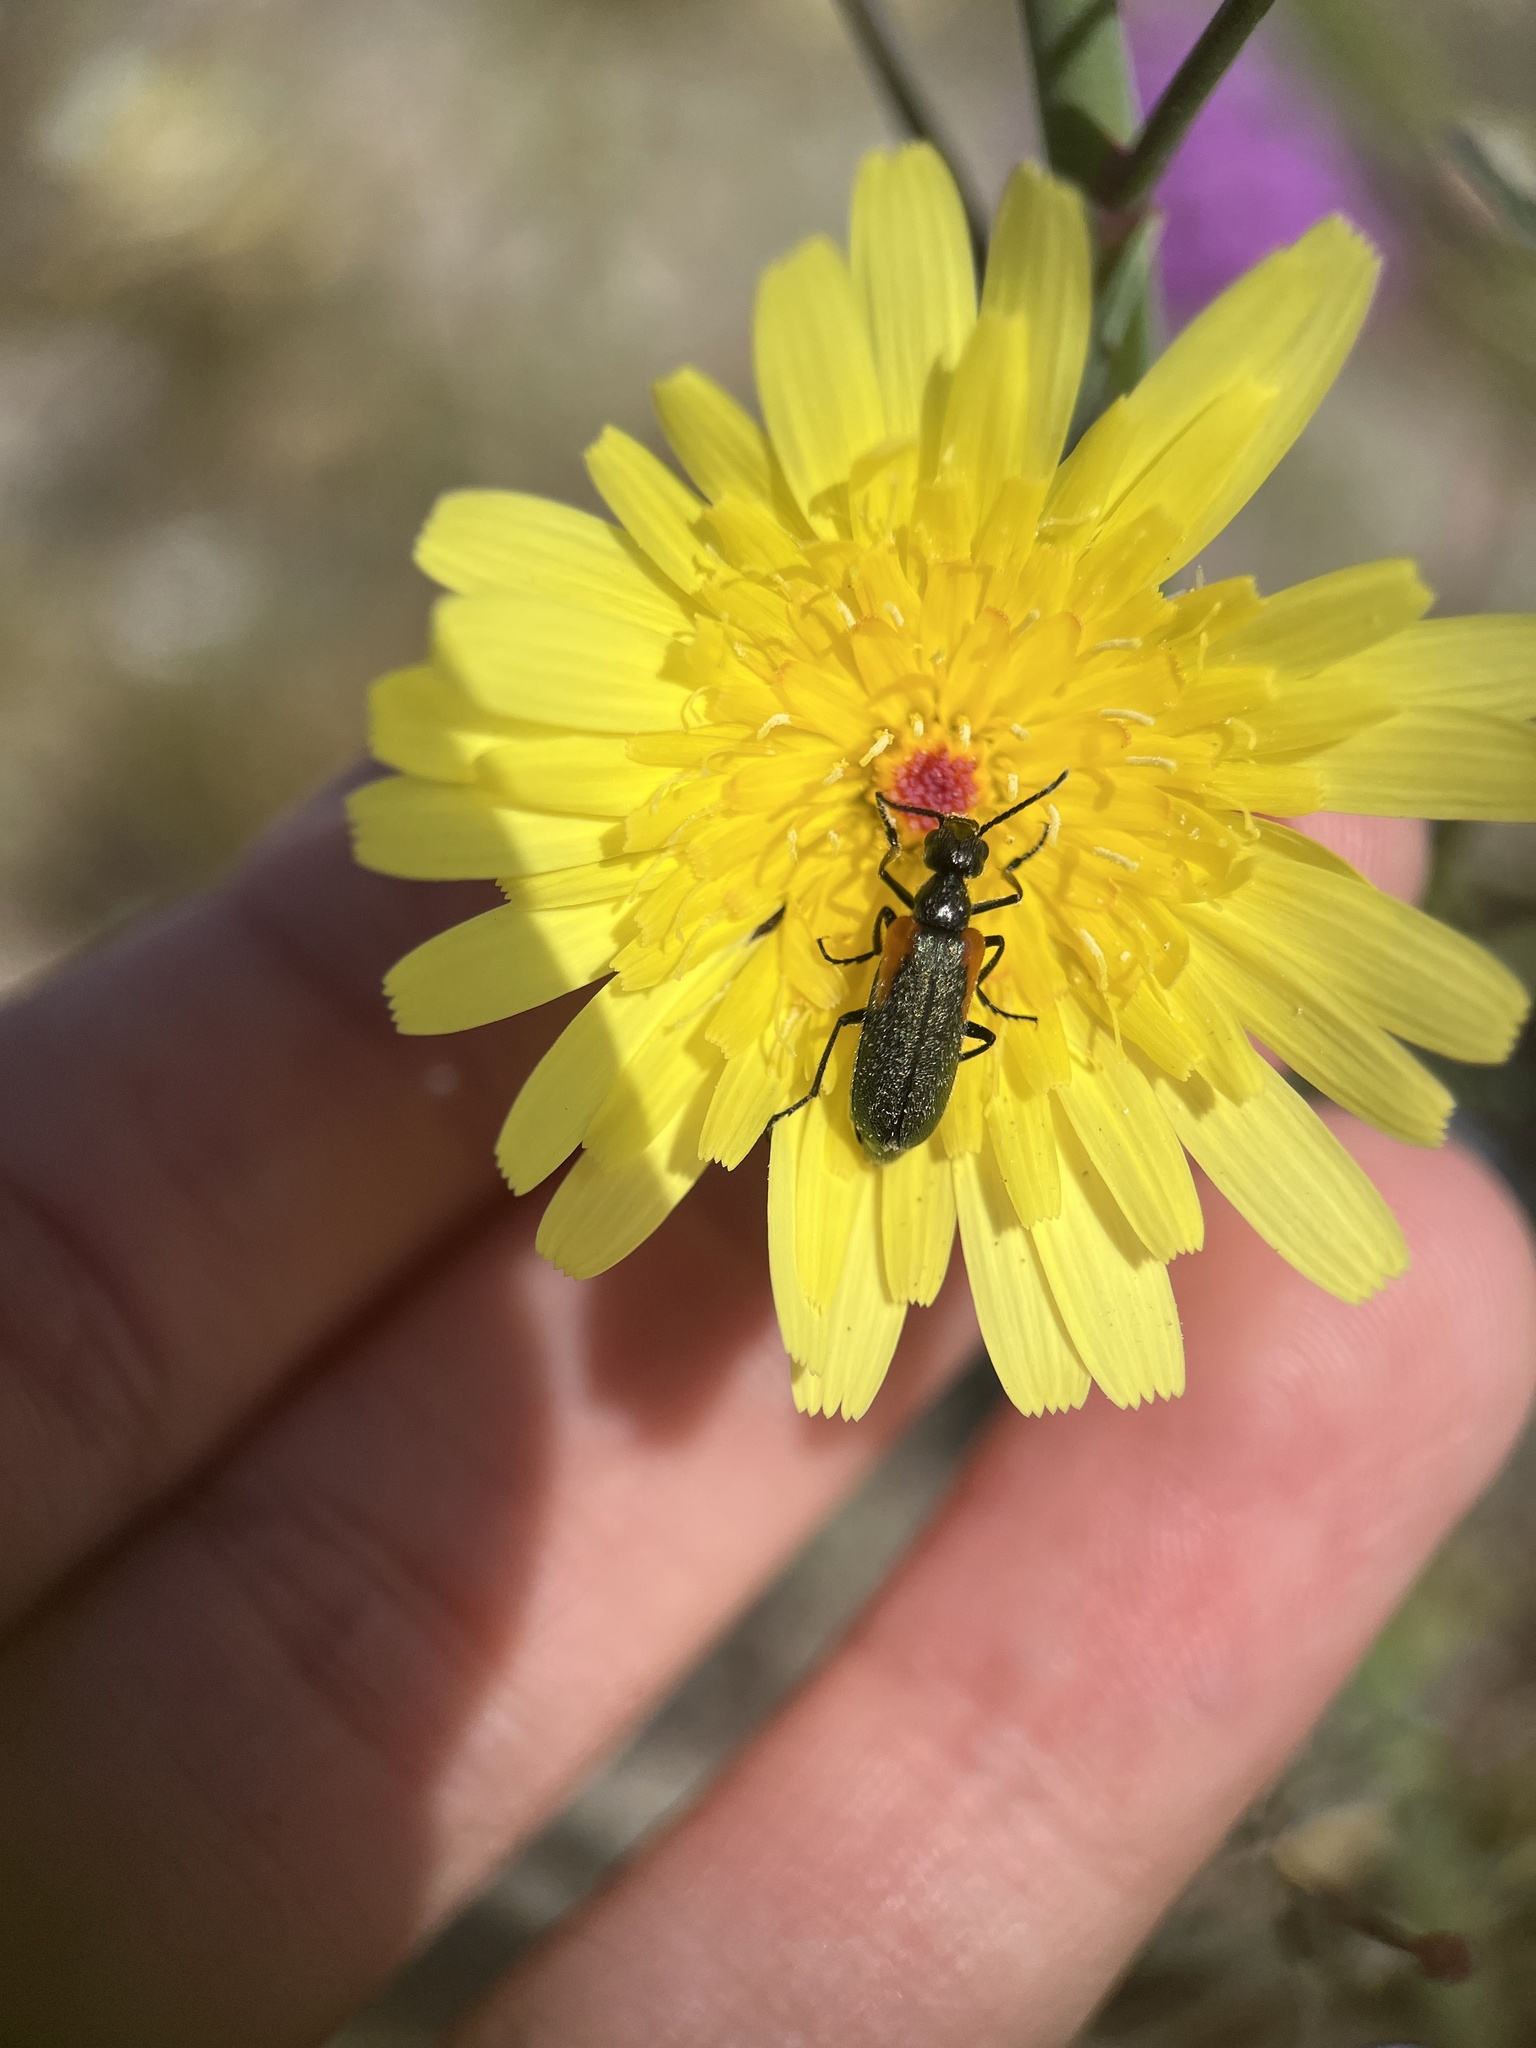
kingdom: Animalia
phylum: Arthropoda
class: Insecta
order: Coleoptera
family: Meloidae
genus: Eupompha
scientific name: Eupompha elegans
